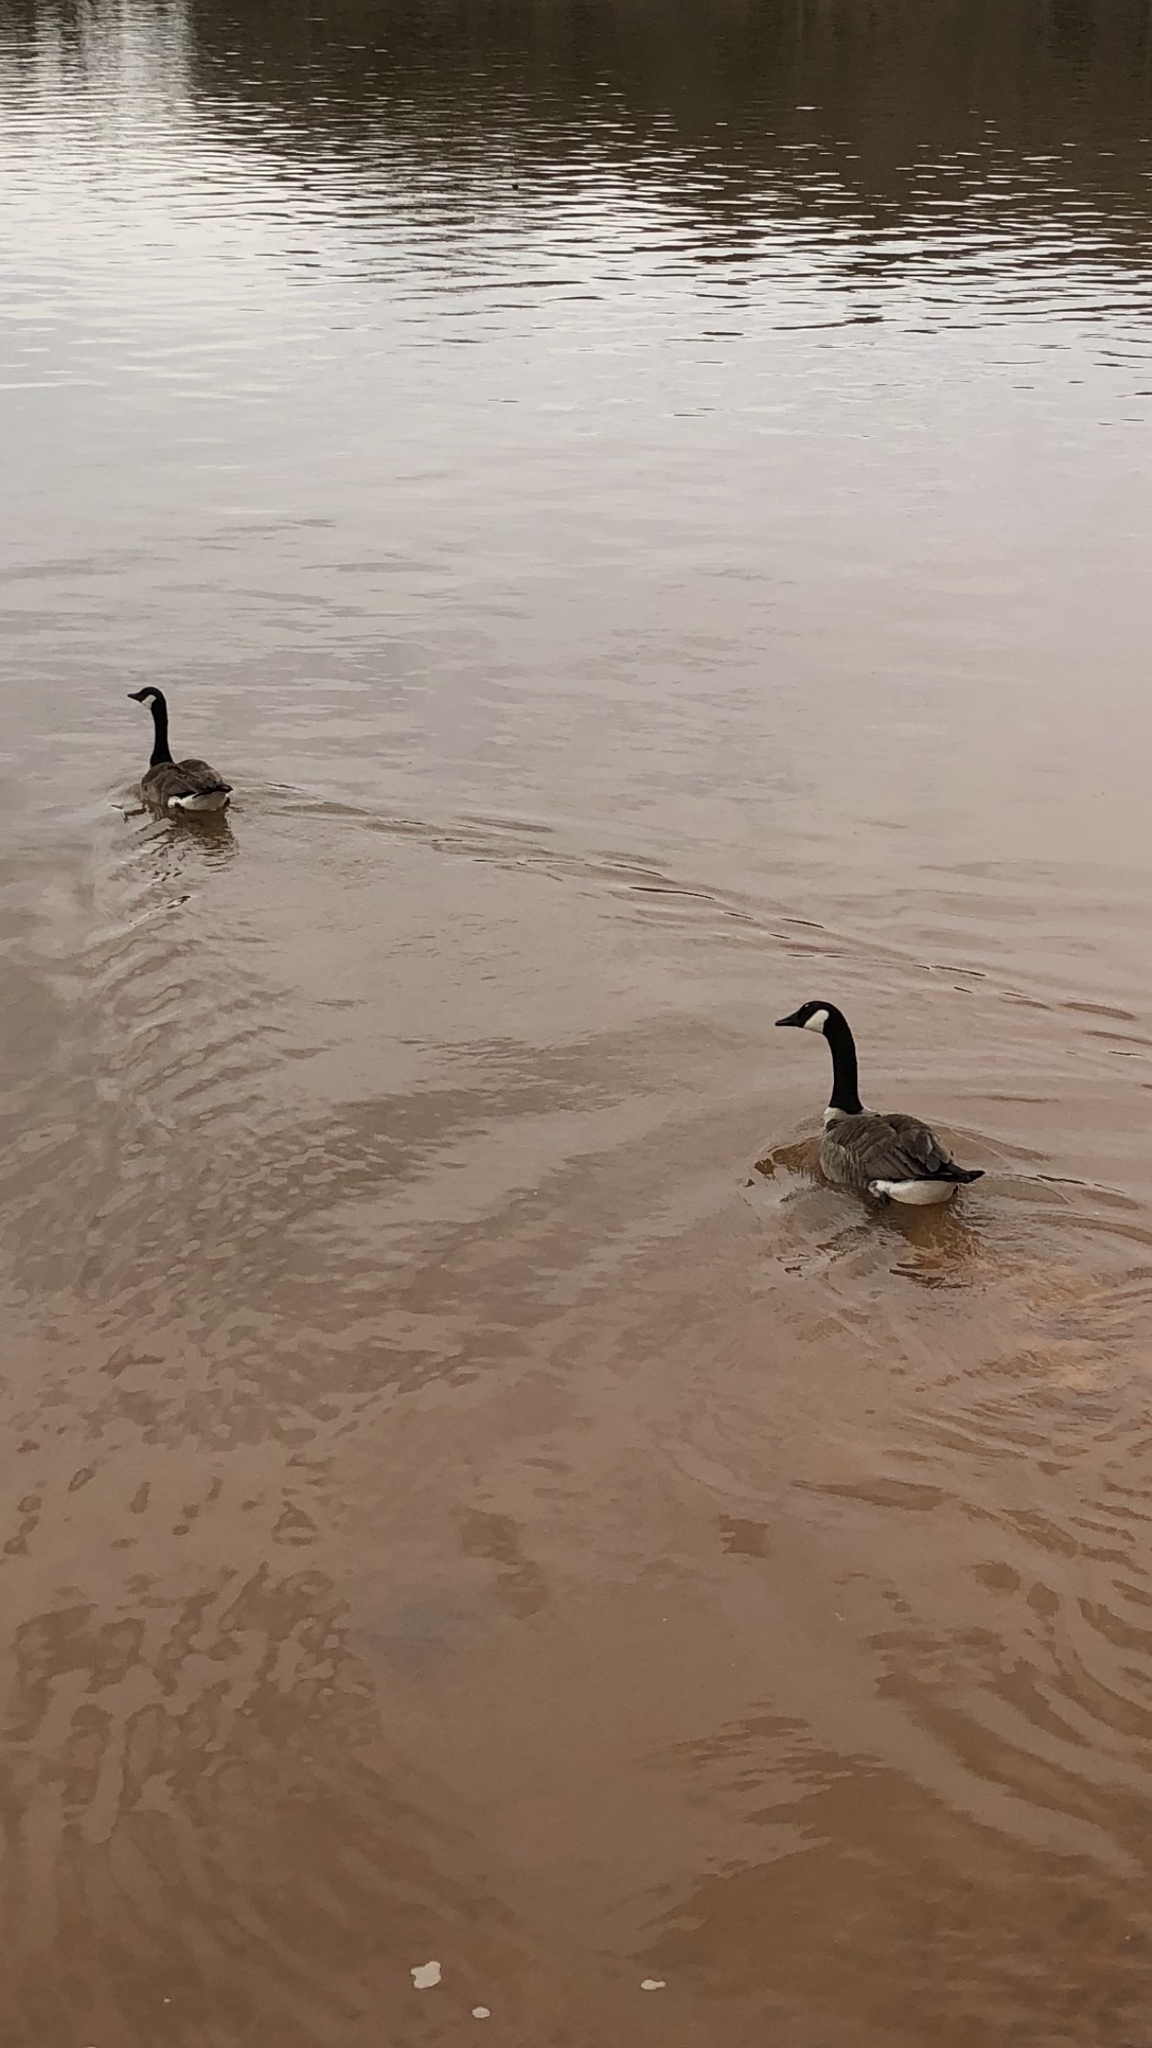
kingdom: Animalia
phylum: Chordata
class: Aves
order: Anseriformes
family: Anatidae
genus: Branta
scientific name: Branta canadensis
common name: Canada goose
